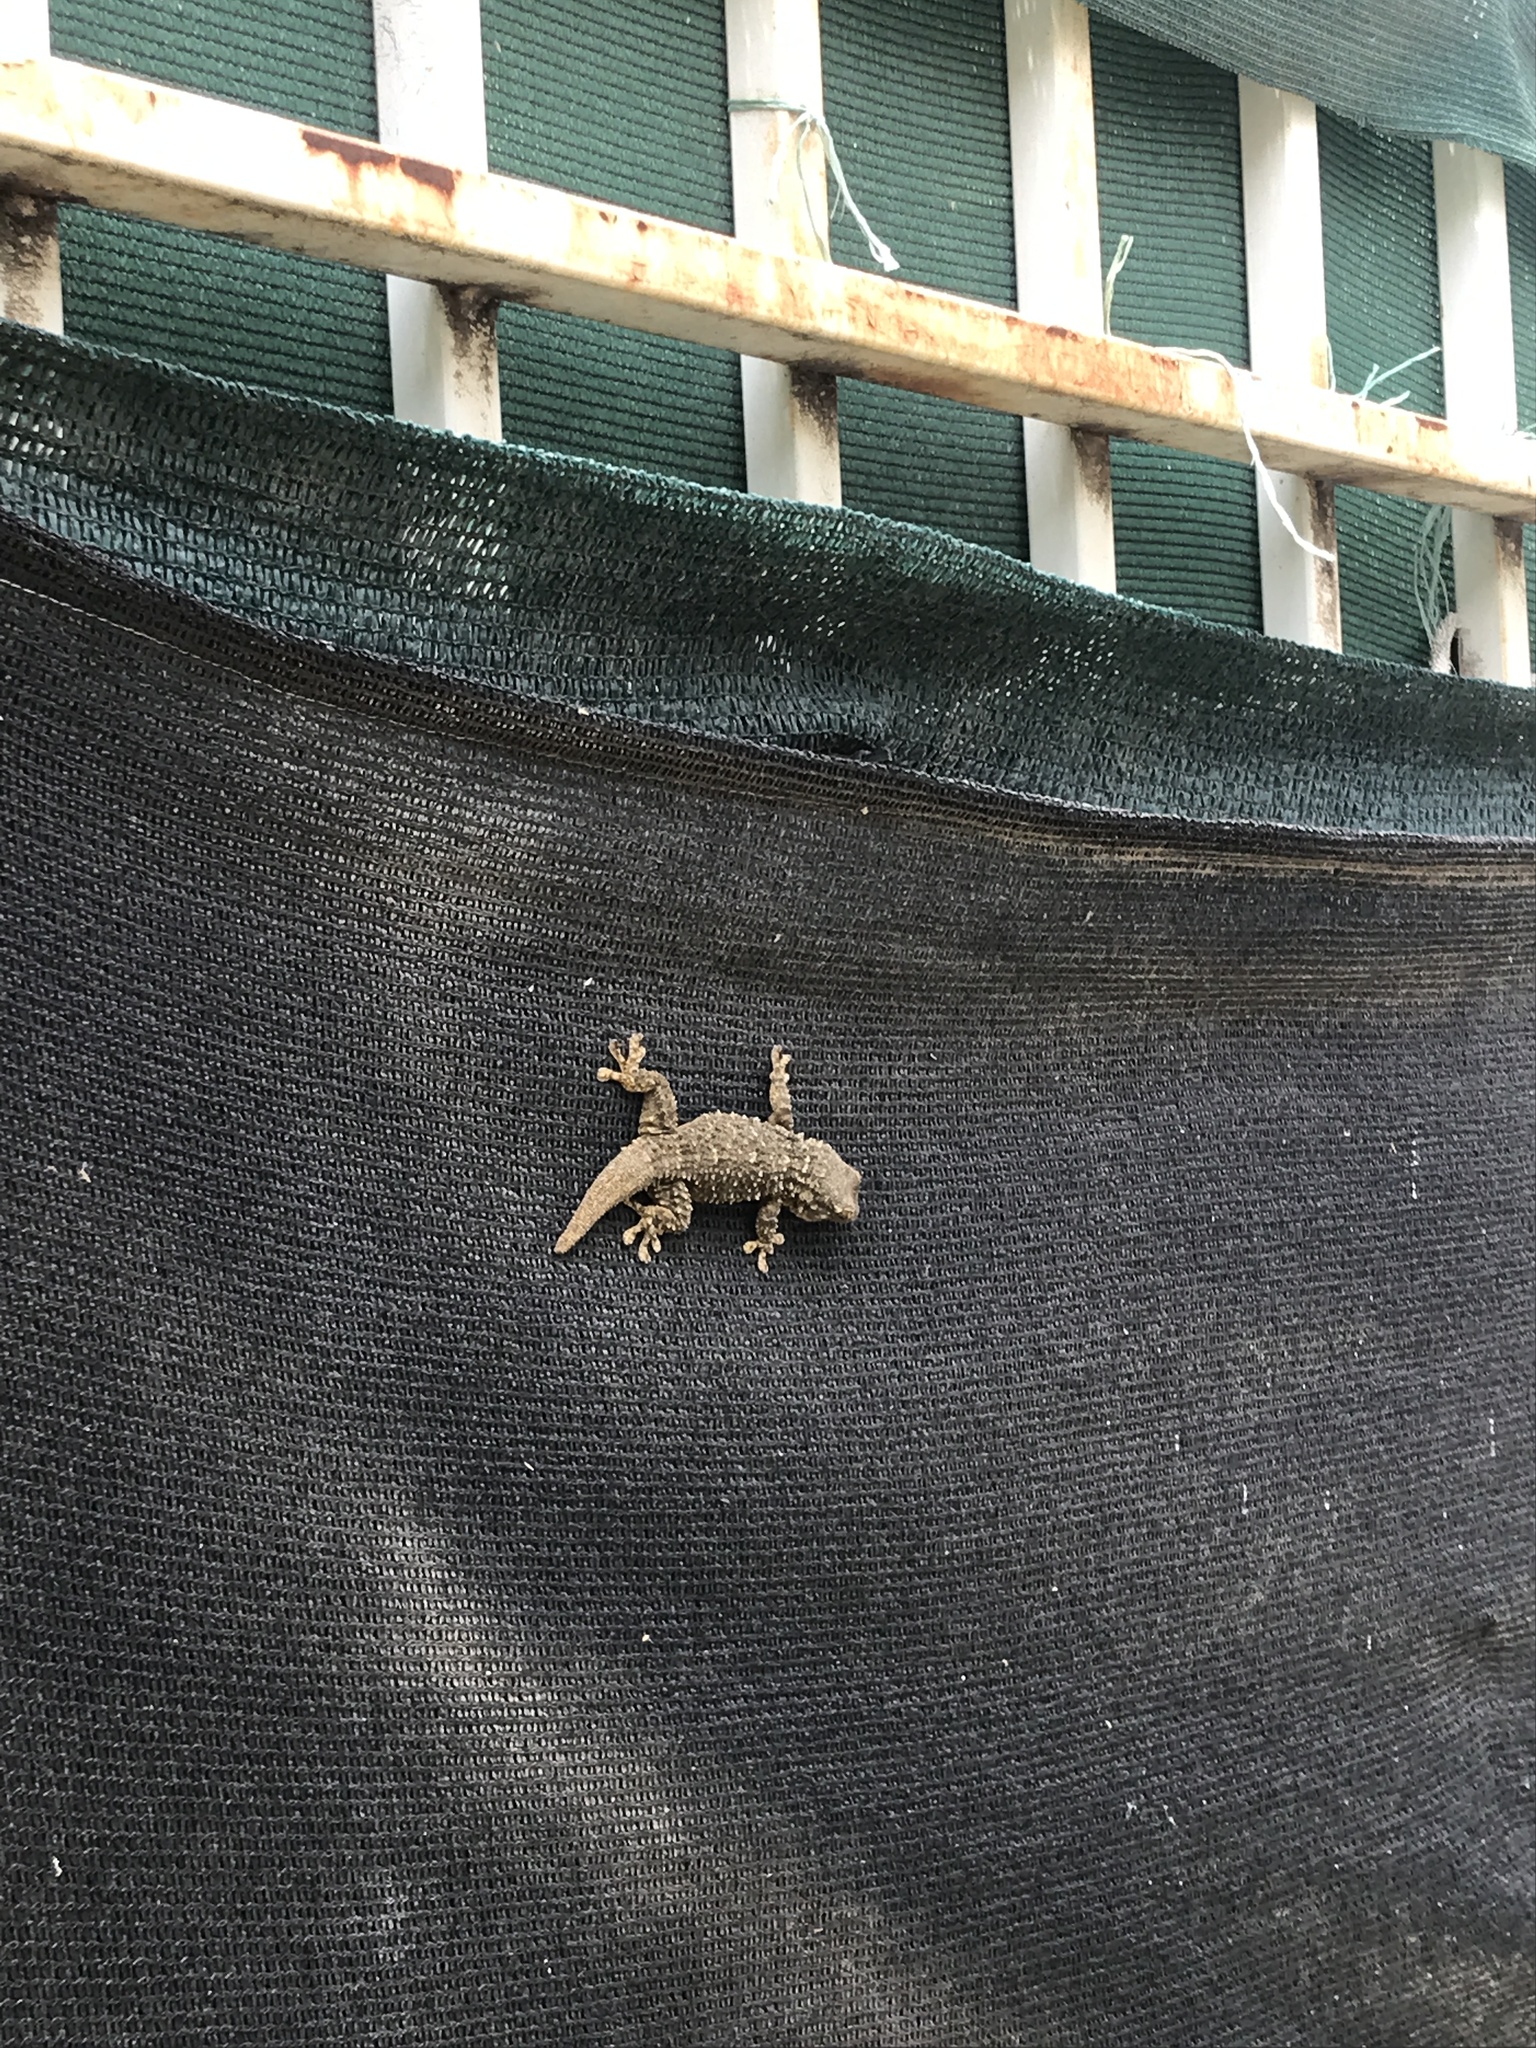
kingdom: Animalia
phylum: Chordata
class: Squamata
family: Phyllodactylidae
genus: Tarentola
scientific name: Tarentola mauritanica
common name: Moorish gecko
